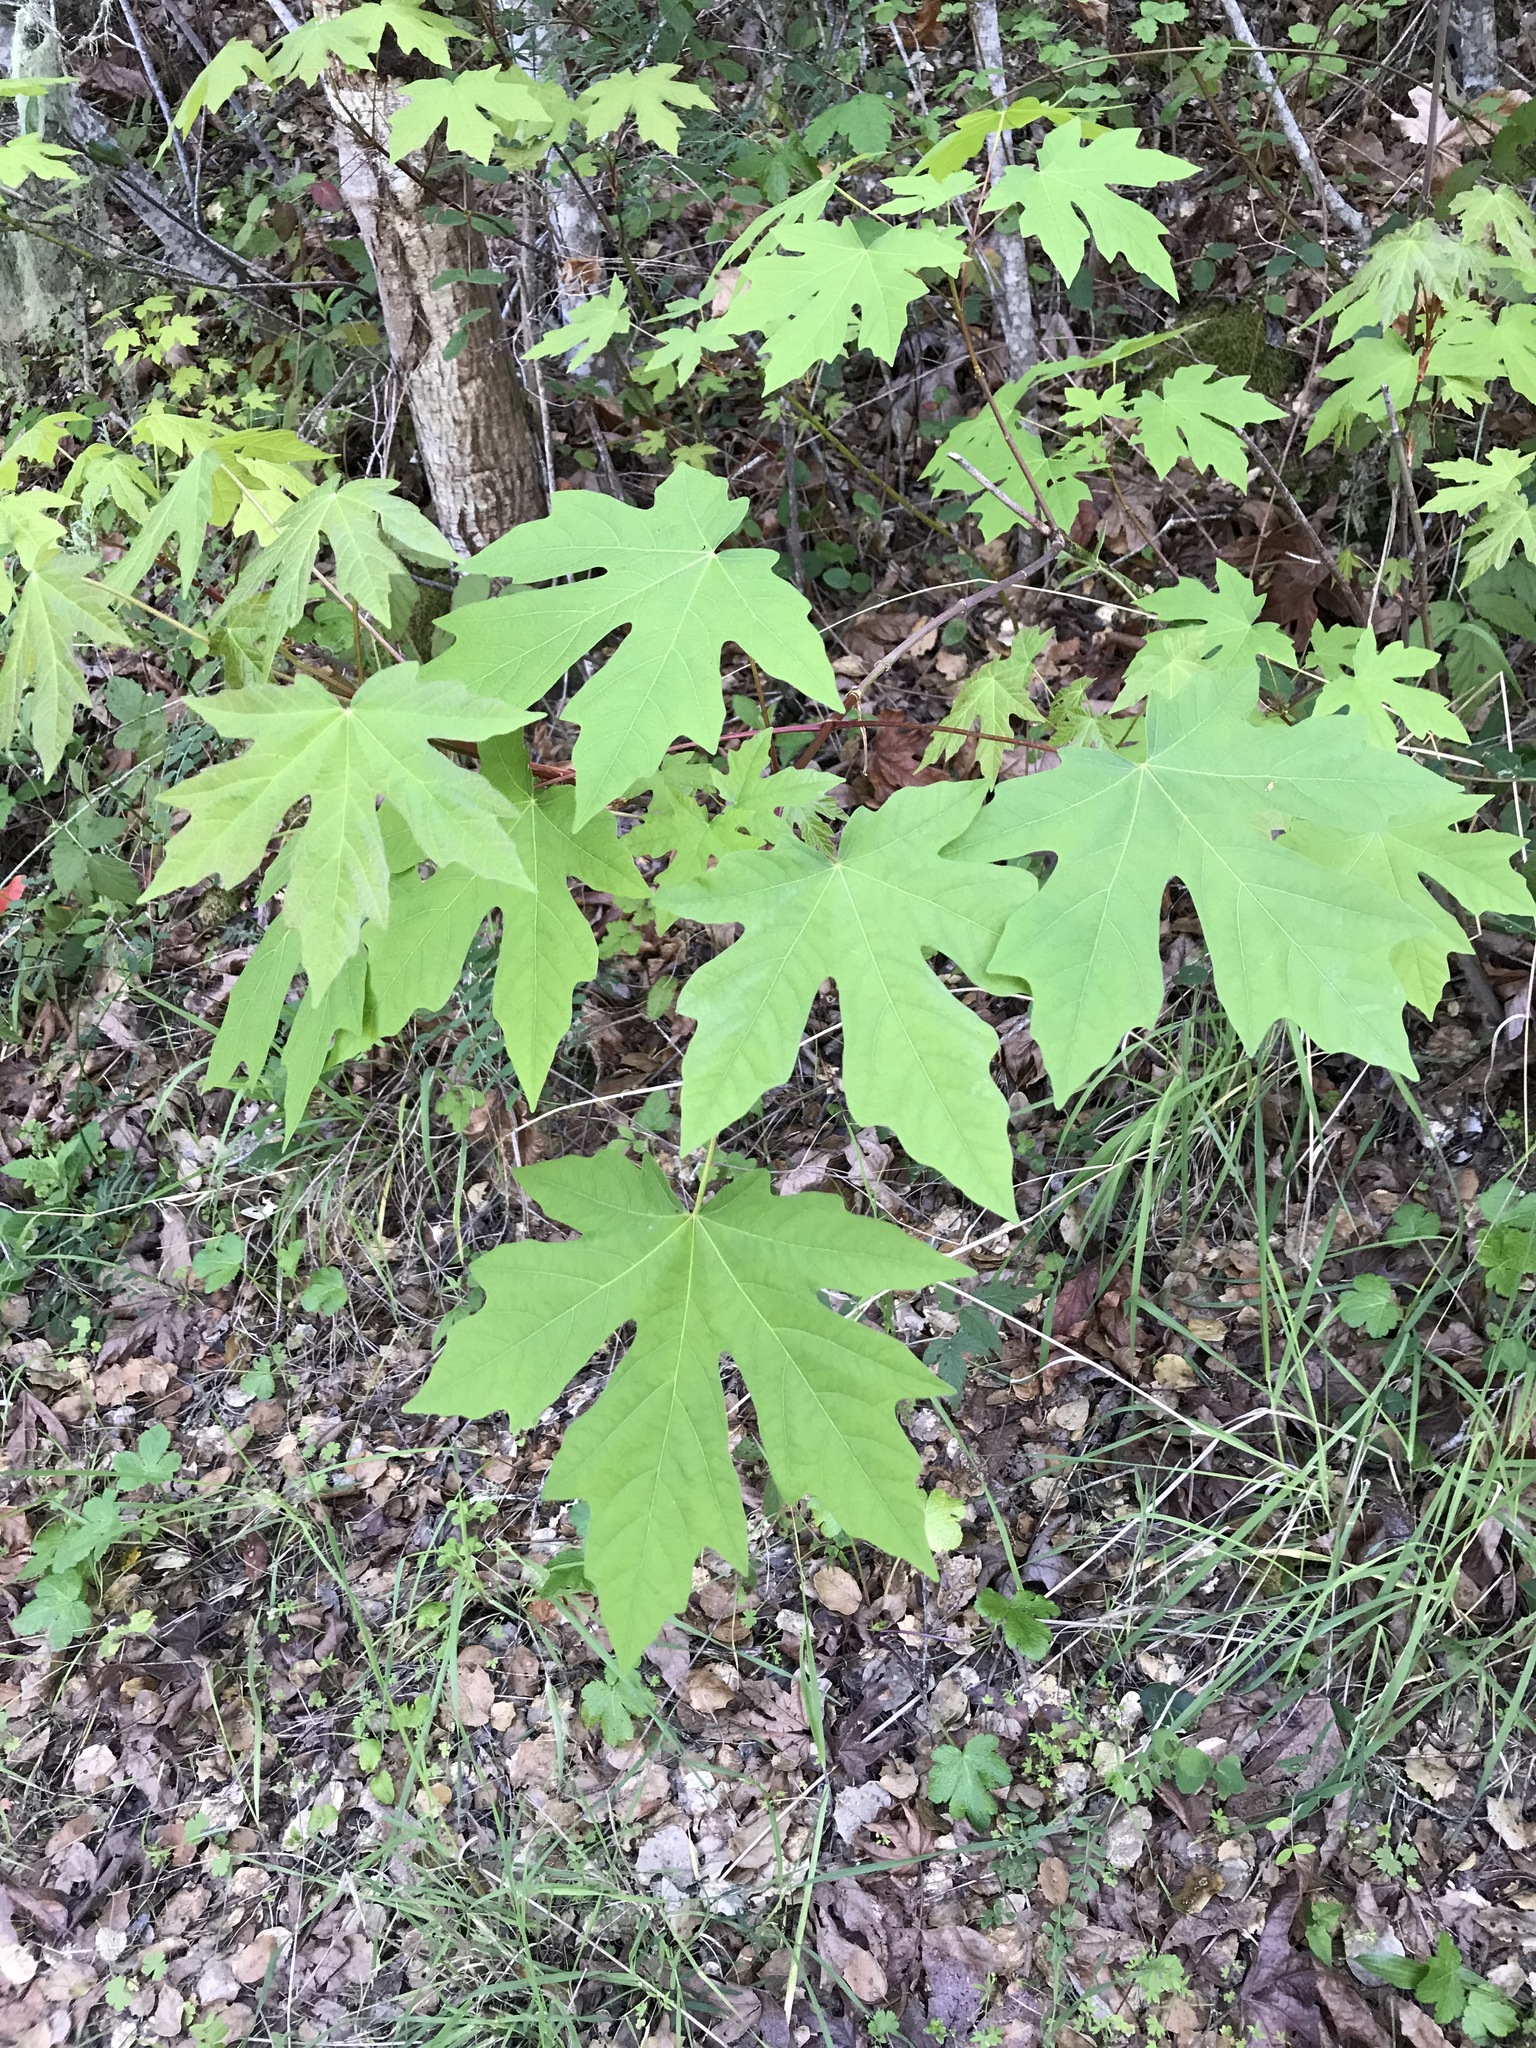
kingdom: Plantae
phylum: Tracheophyta
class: Magnoliopsida
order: Sapindales
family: Sapindaceae
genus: Acer
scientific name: Acer macrophyllum
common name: Oregon maple
